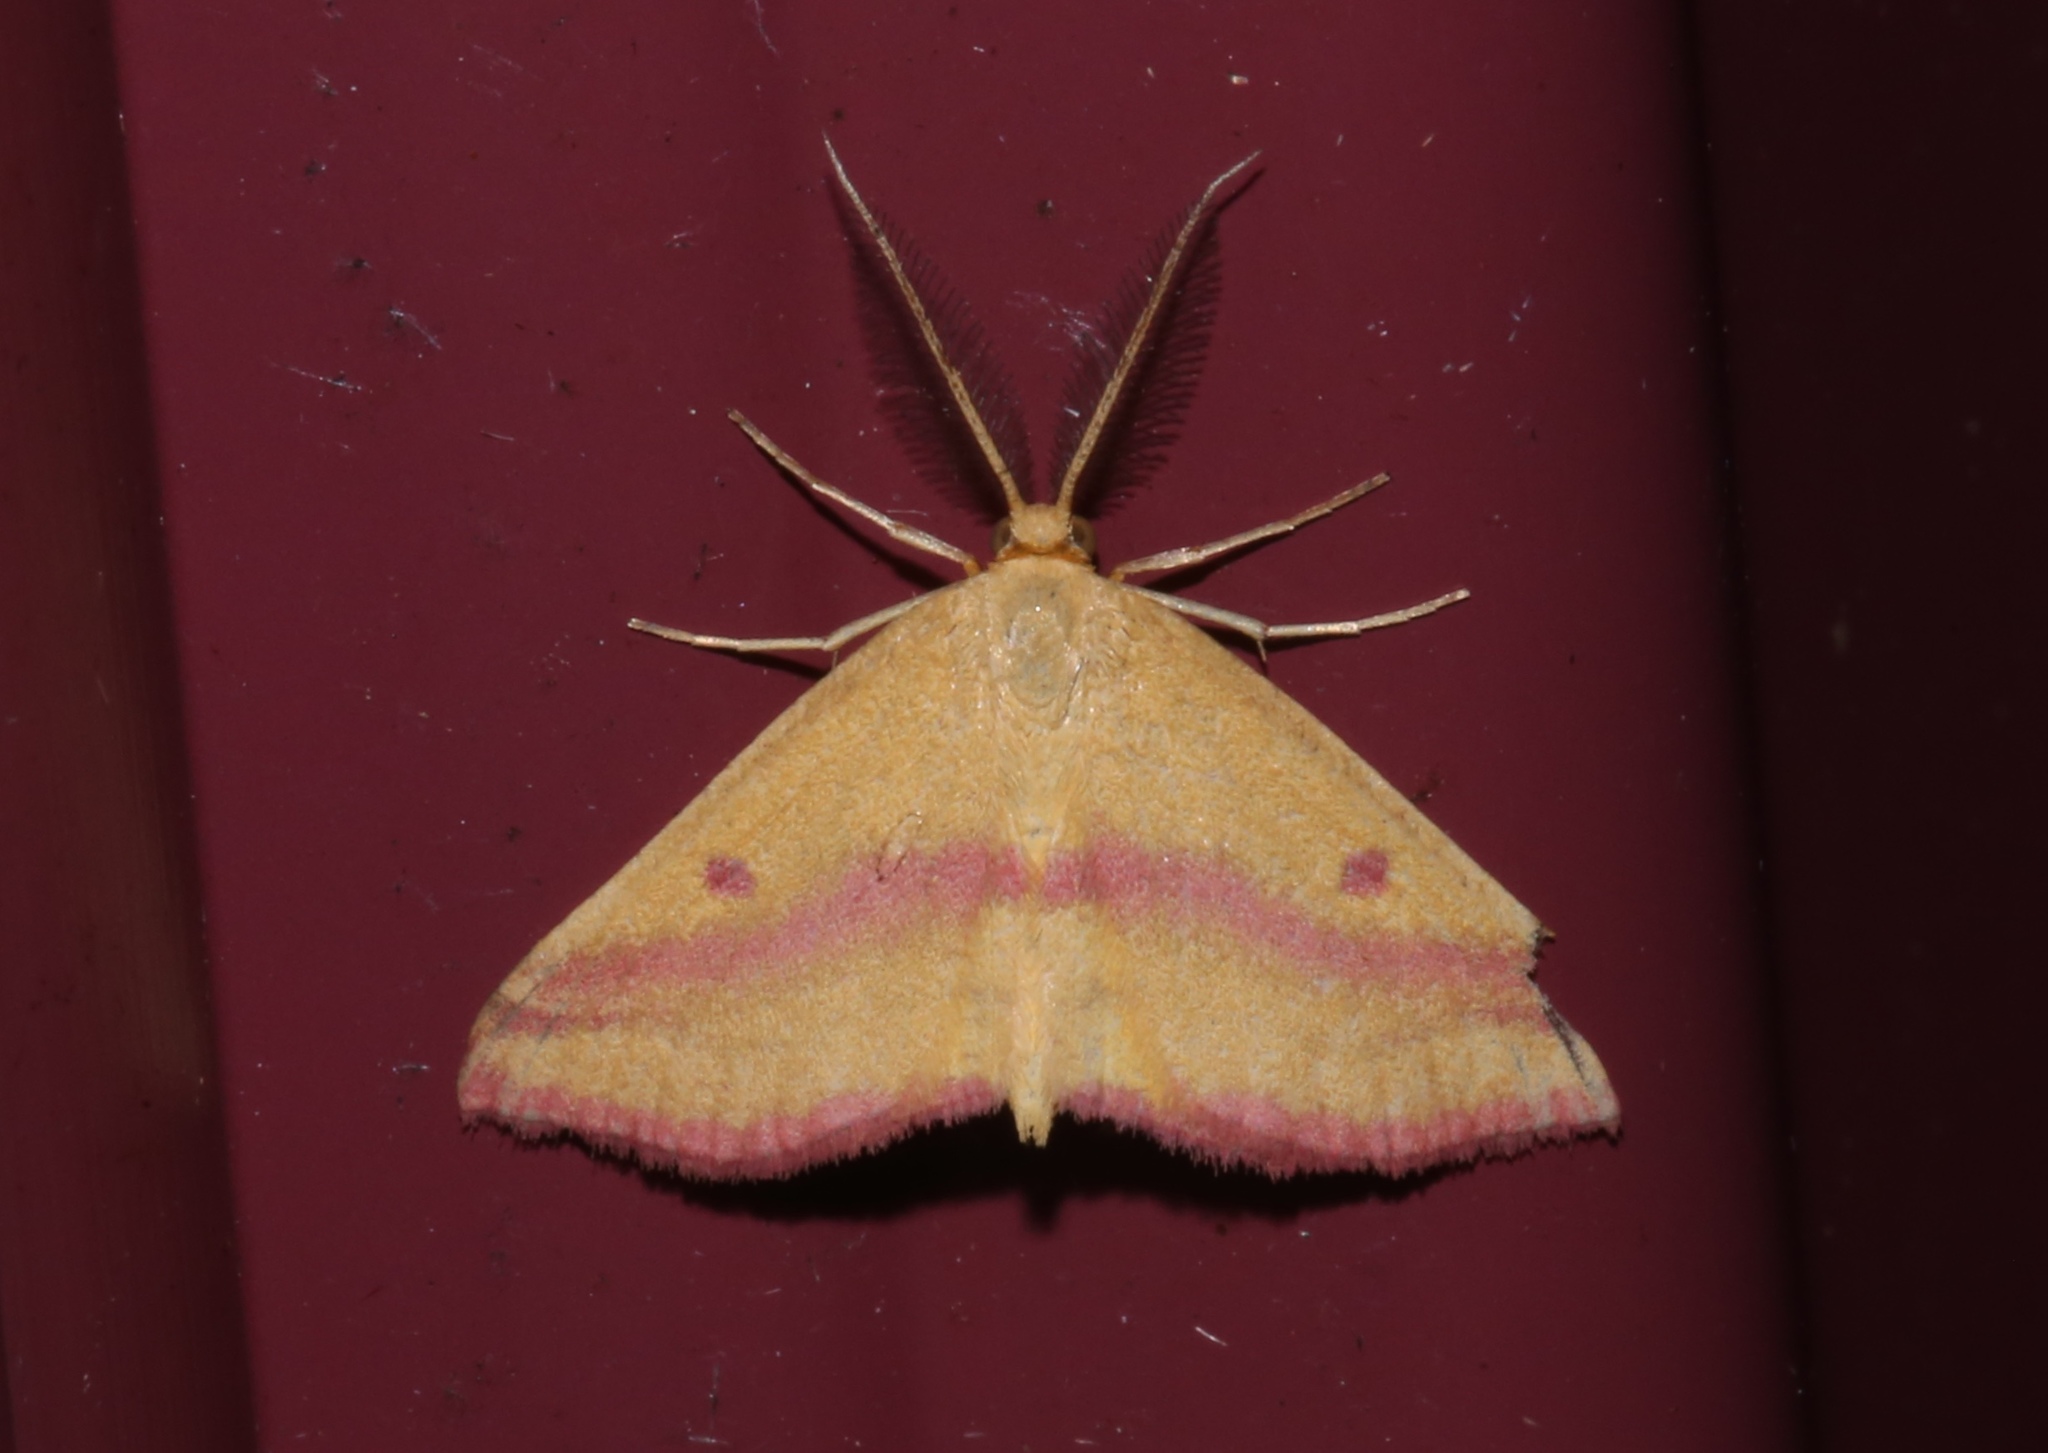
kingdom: Animalia
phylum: Arthropoda
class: Insecta
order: Lepidoptera
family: Geometridae
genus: Haematopis
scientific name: Haematopis grataria
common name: Chickweed geometer
